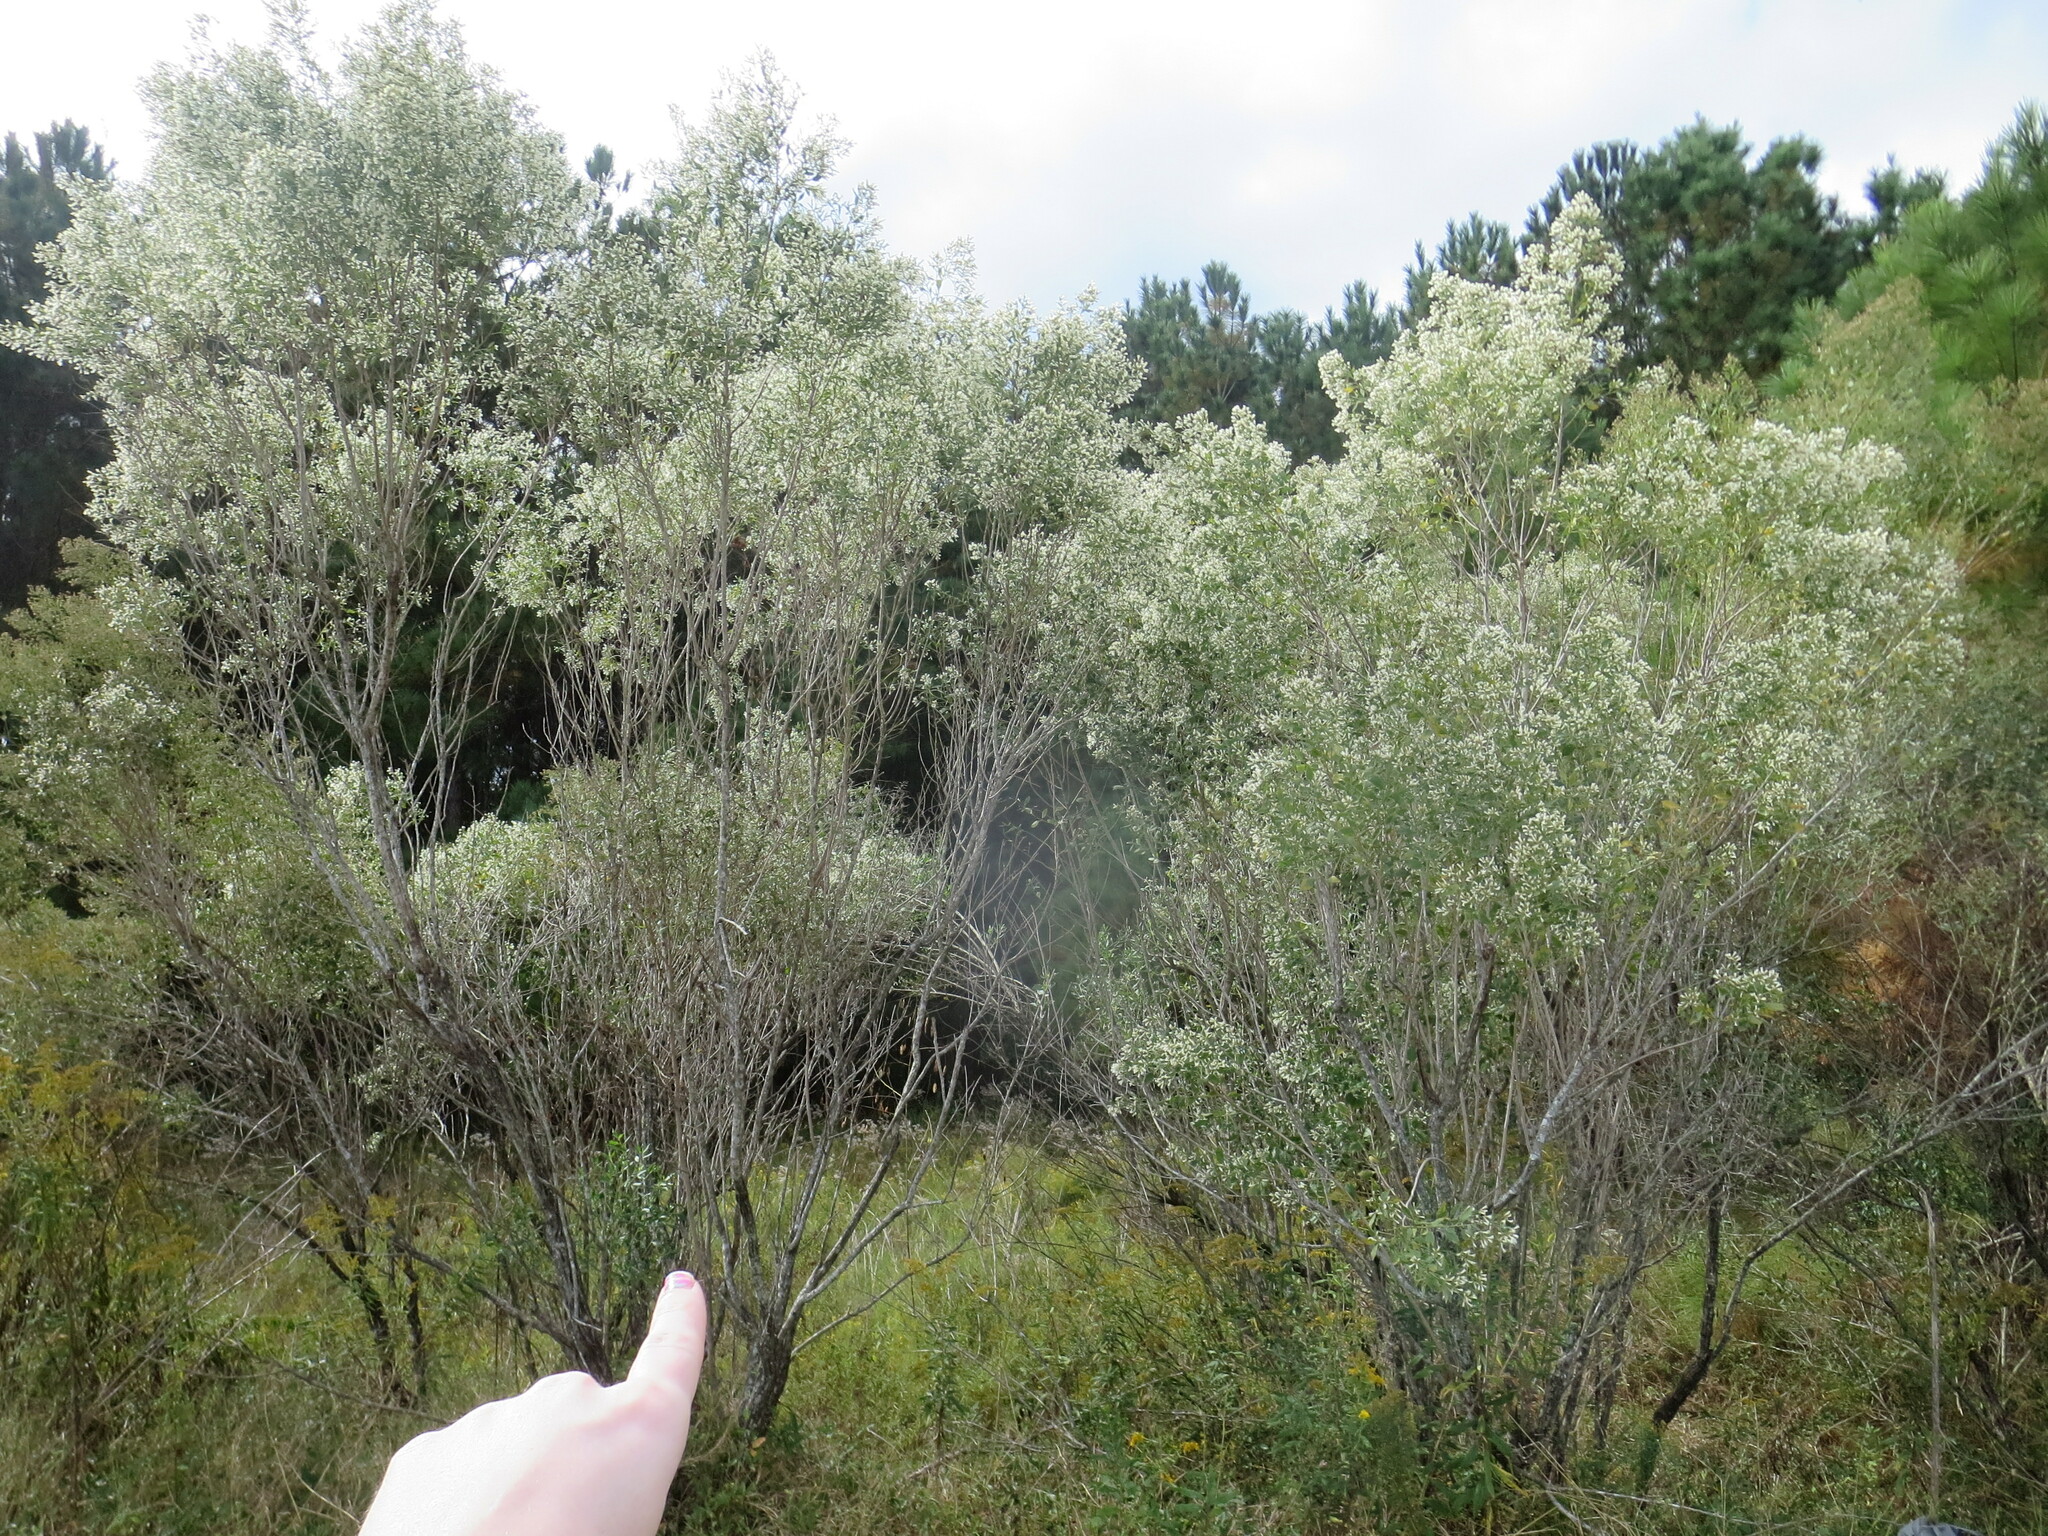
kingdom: Plantae
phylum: Tracheophyta
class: Magnoliopsida
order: Asterales
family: Asteraceae
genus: Baccharis
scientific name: Baccharis halimifolia
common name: Eastern baccharis
